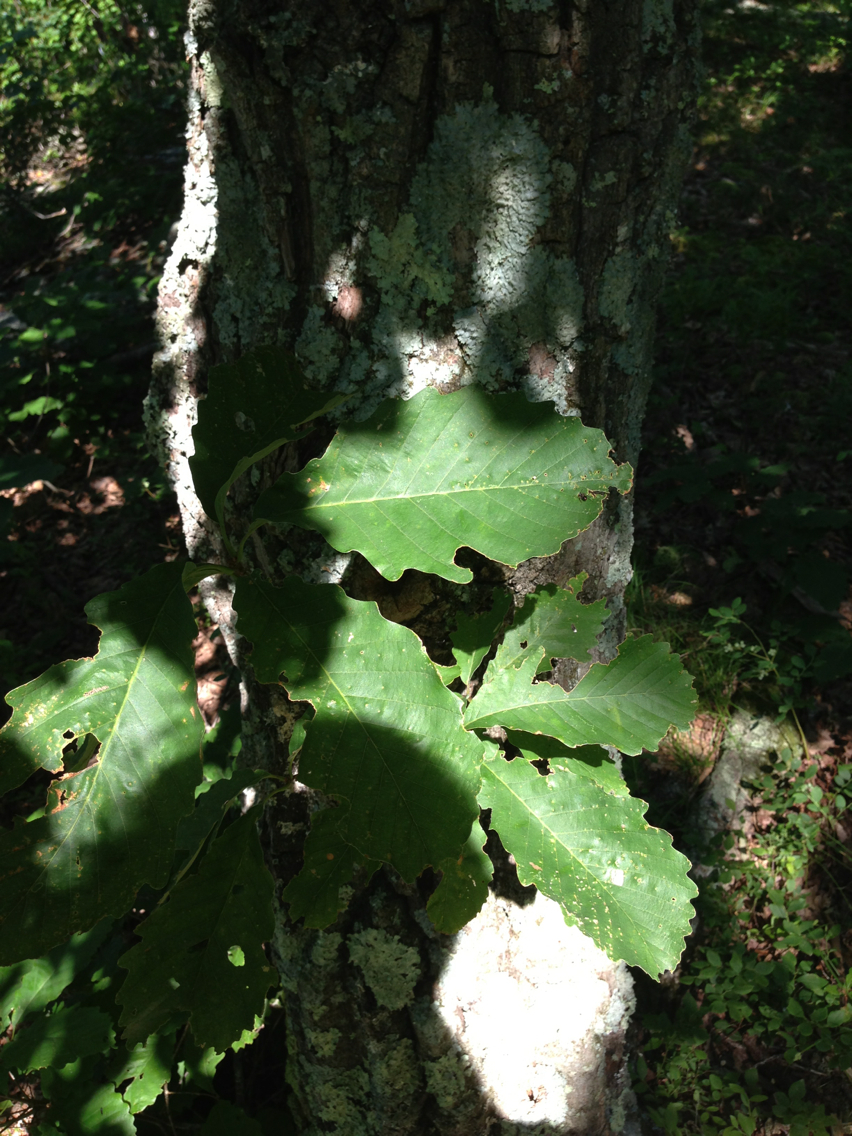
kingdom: Plantae
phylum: Tracheophyta
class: Magnoliopsida
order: Fagales
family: Fagaceae
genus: Quercus
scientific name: Quercus montana
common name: Chestnut oak
